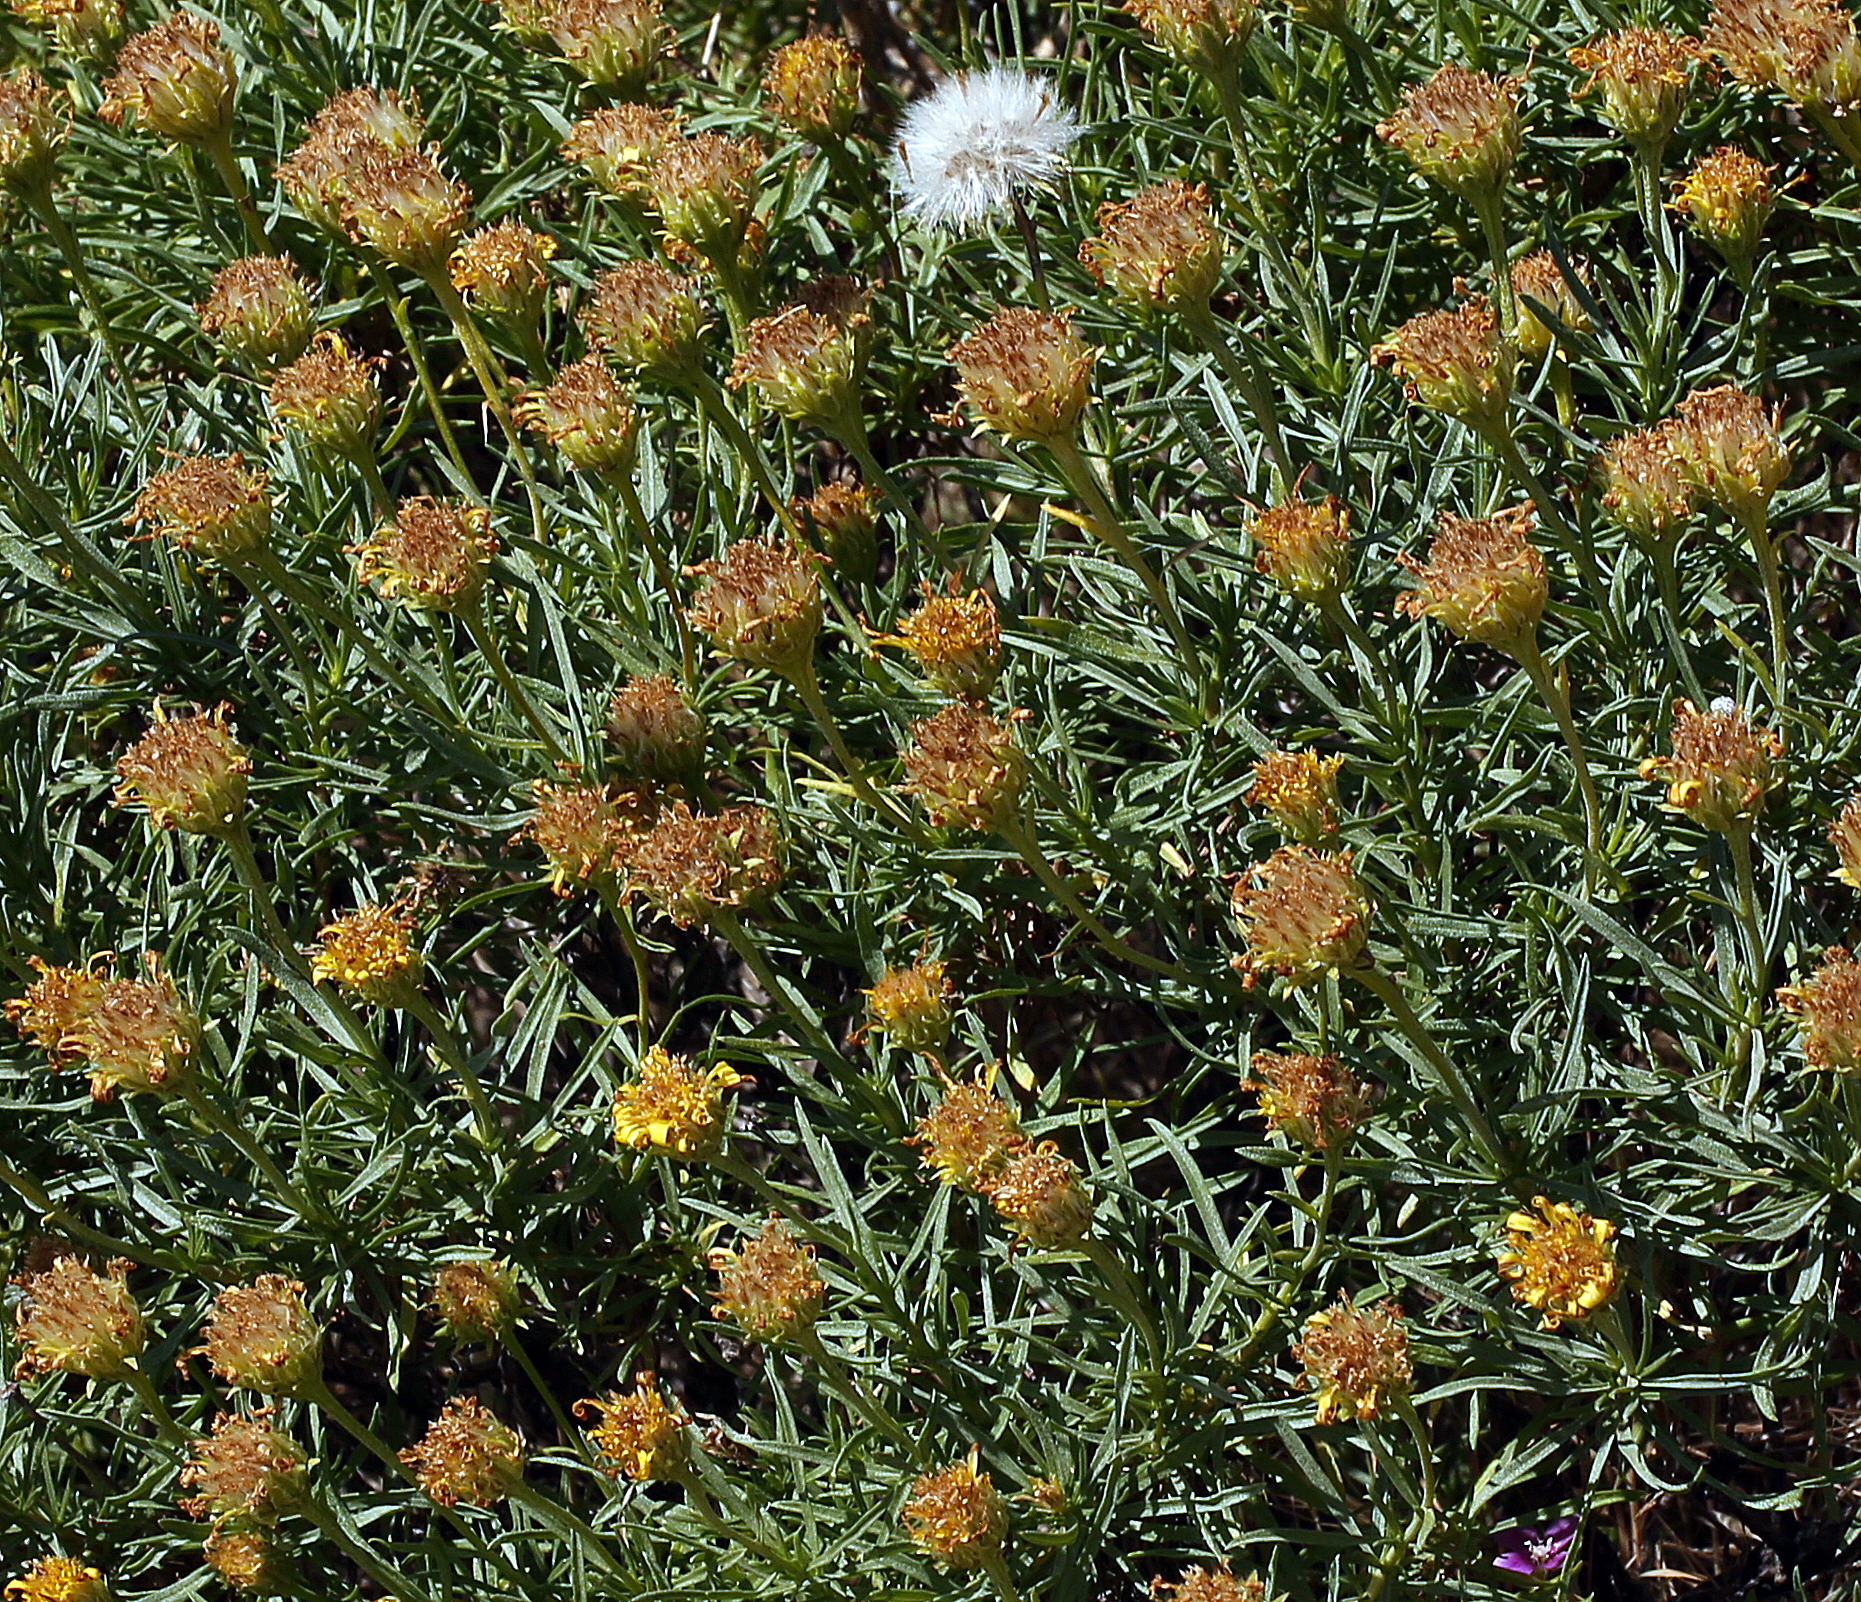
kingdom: Plantae
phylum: Tracheophyta
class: Magnoliopsida
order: Asterales
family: Asteraceae
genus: Ericameria
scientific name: Ericameria linearifolia
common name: Interior goldenbush
